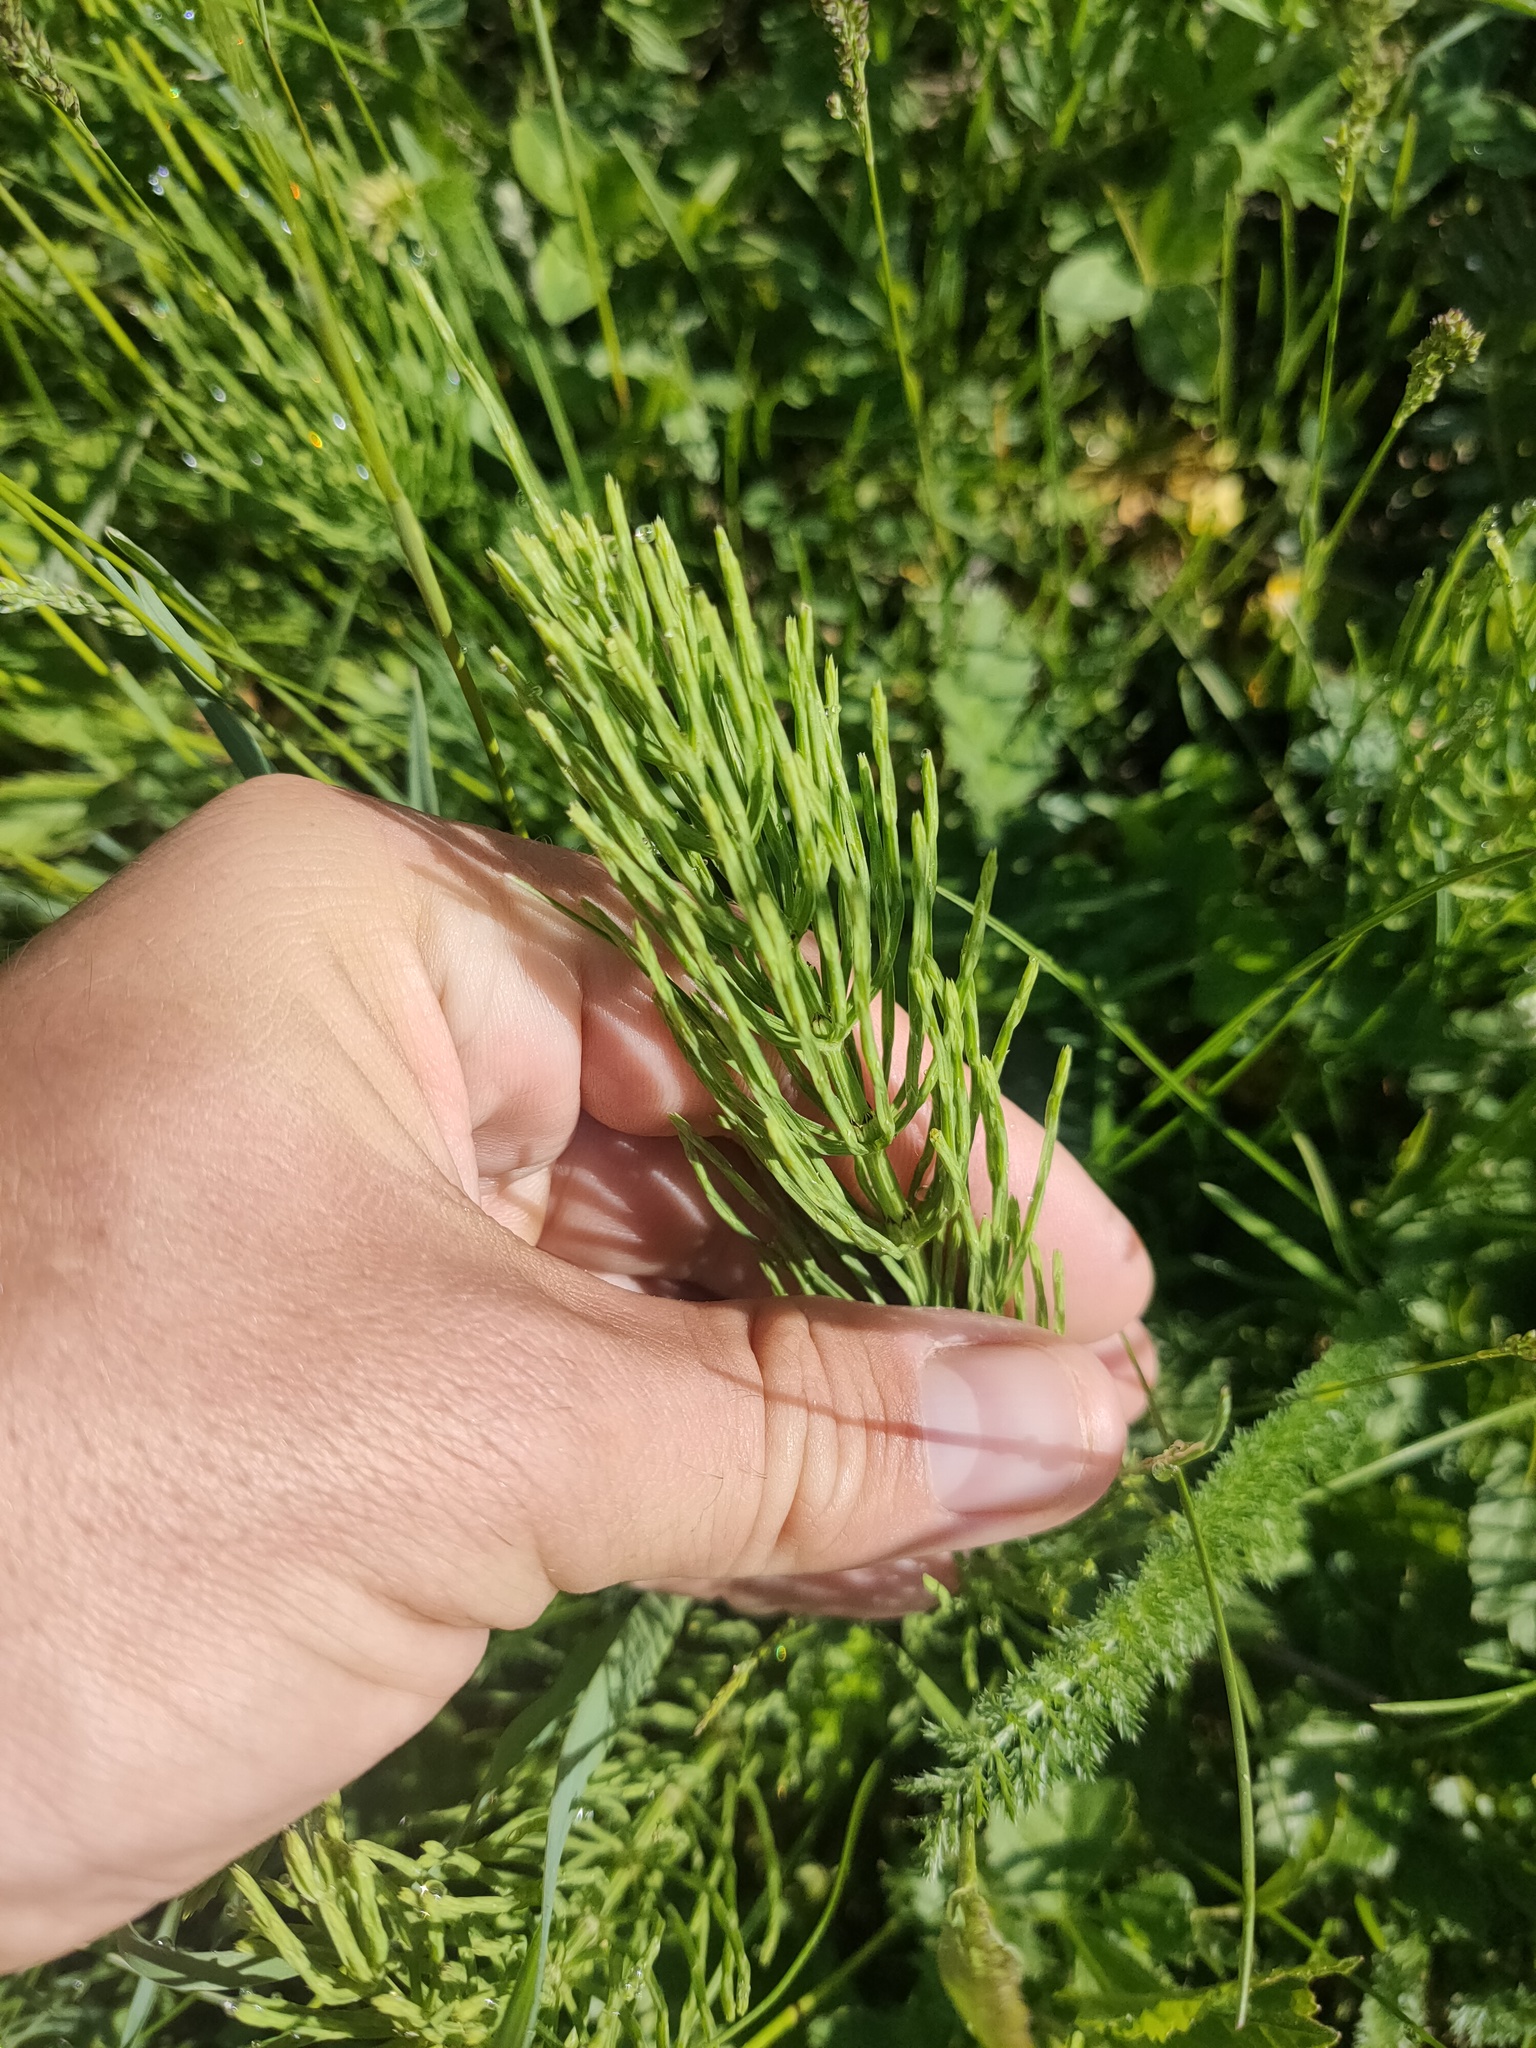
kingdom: Plantae
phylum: Tracheophyta
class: Polypodiopsida
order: Equisetales
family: Equisetaceae
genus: Equisetum
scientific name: Equisetum arvense
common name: Field horsetail
